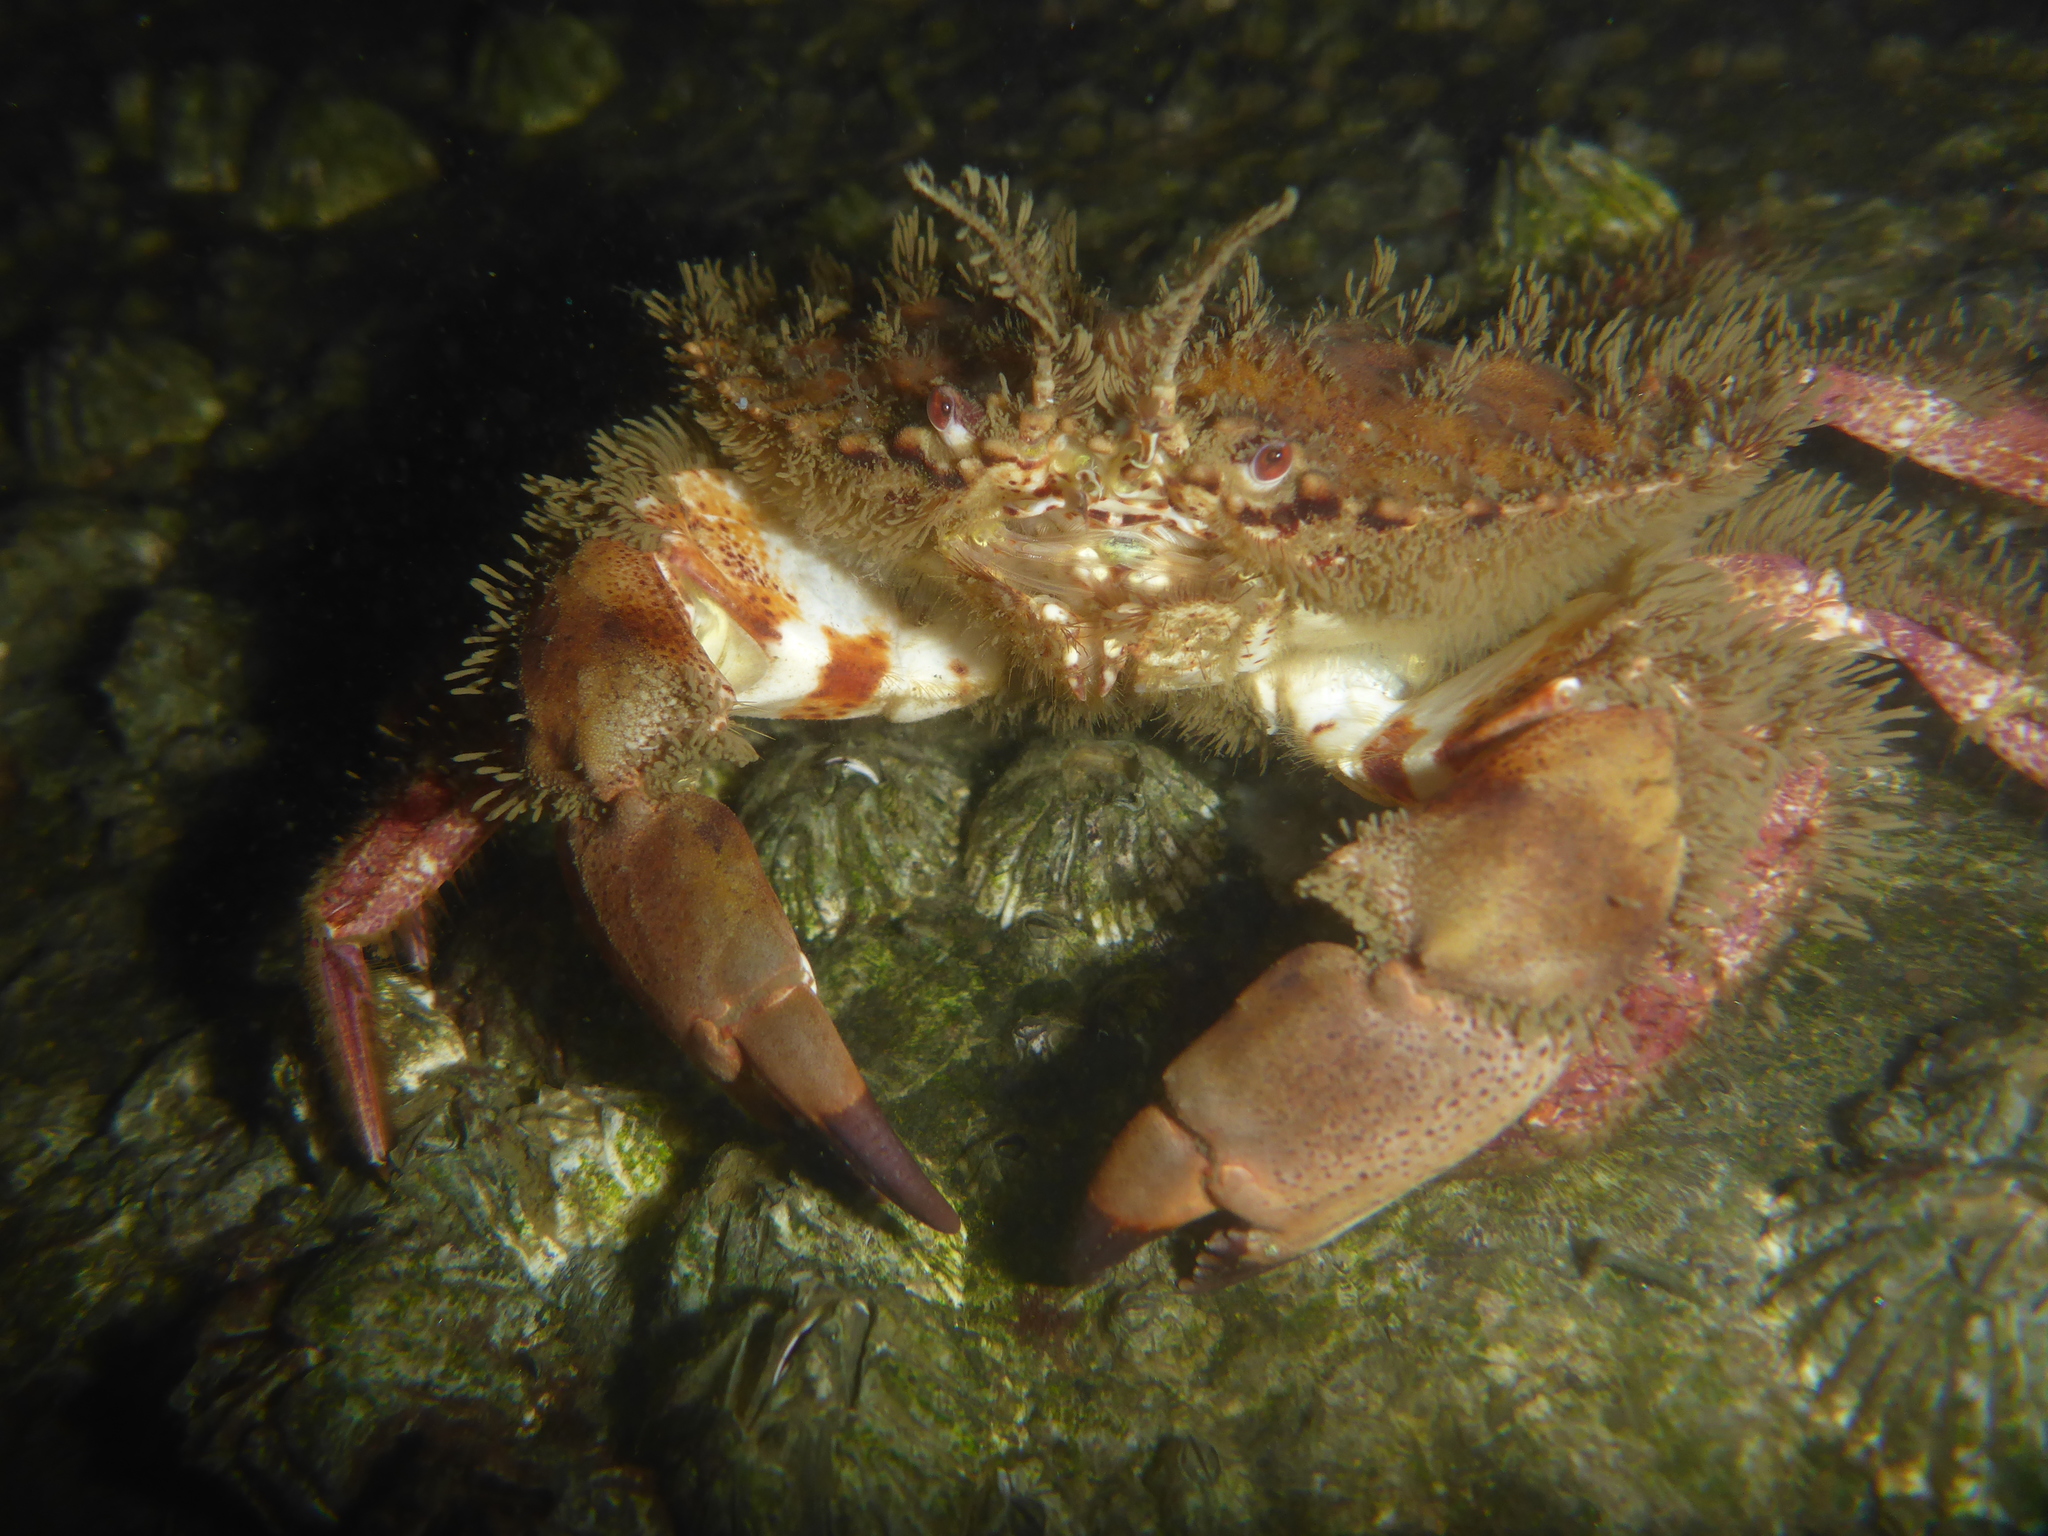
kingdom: Animalia
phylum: Arthropoda
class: Malacostraca
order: Decapoda
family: Cancridae
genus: Romaleon
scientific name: Romaleon antennarium
